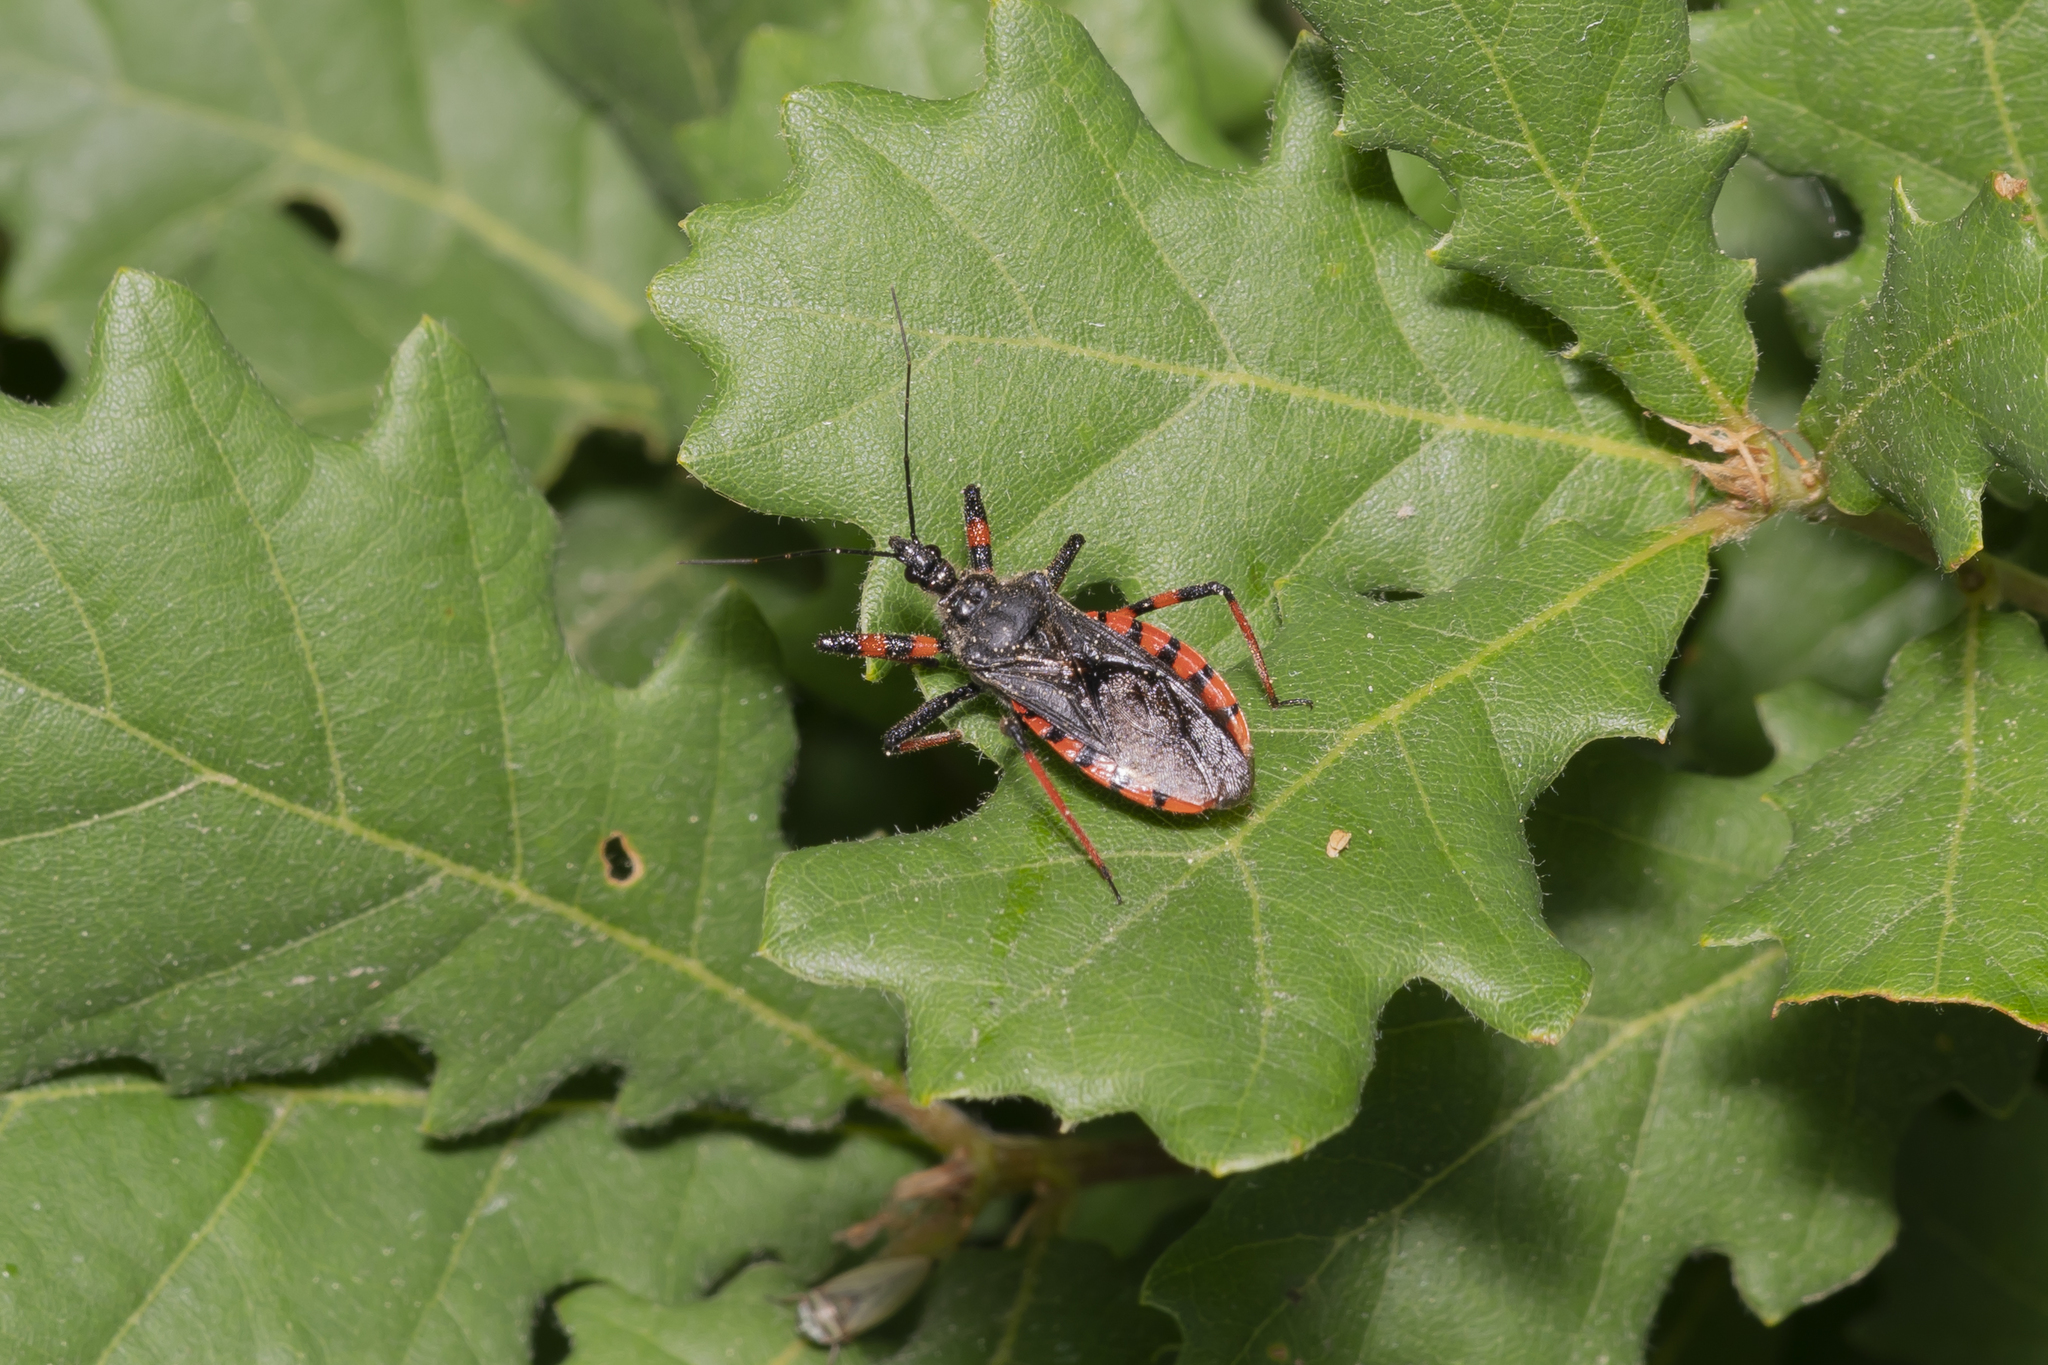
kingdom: Animalia
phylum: Arthropoda
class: Insecta
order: Hemiptera
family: Reduviidae
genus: Rhynocoris
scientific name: Rhynocoris annulatus
